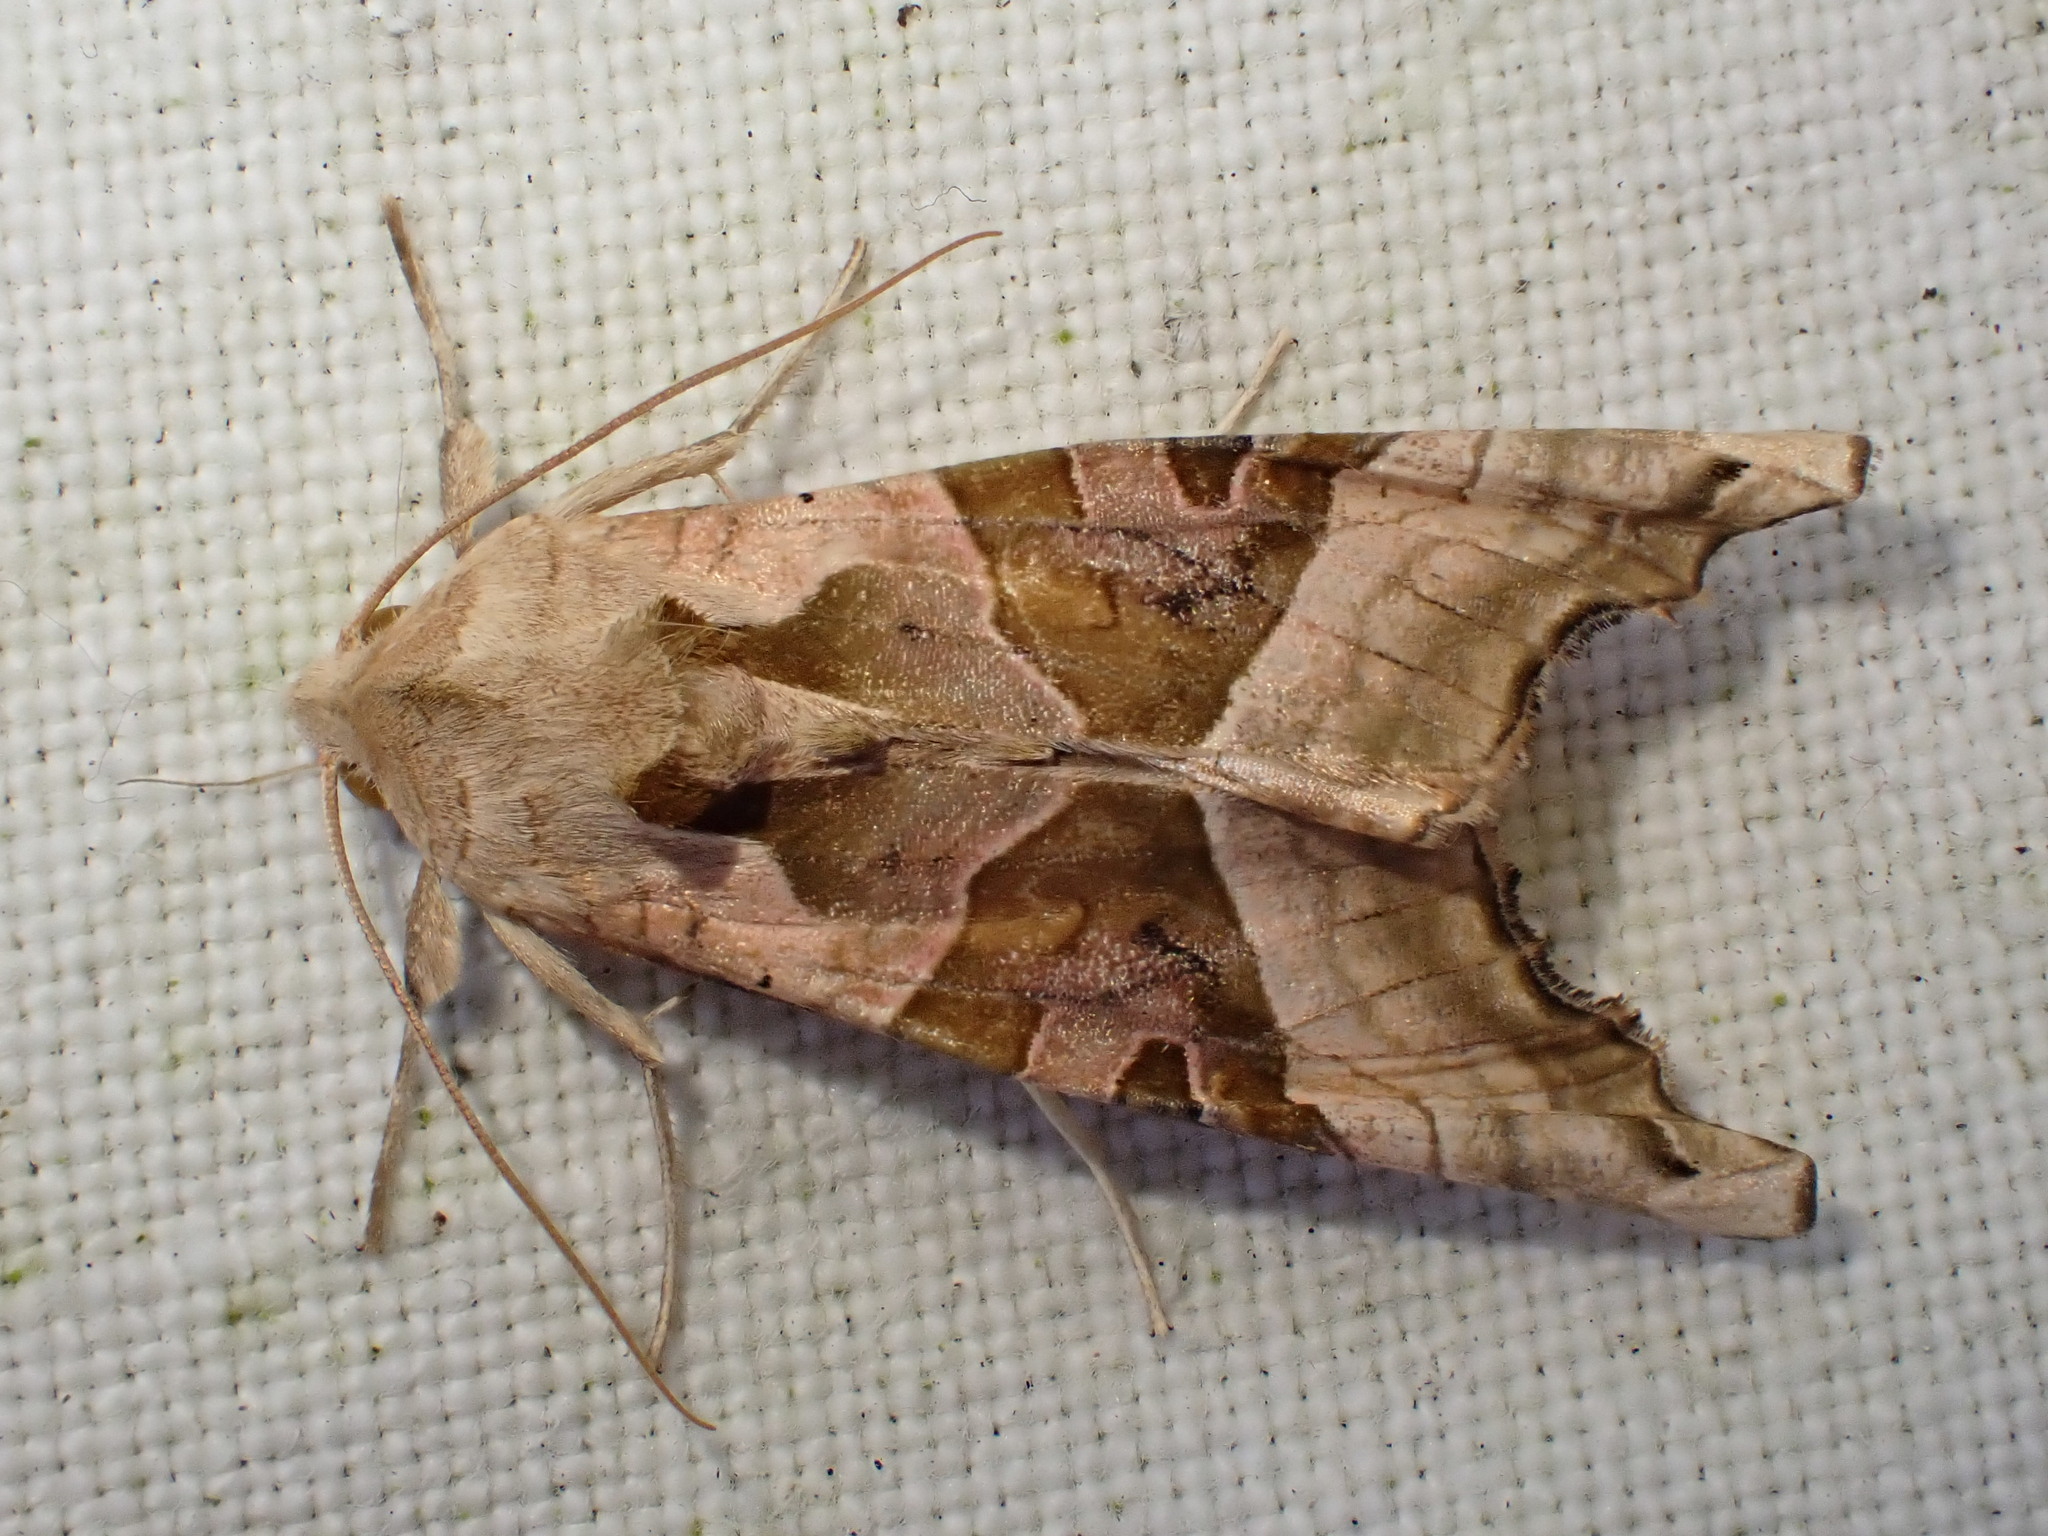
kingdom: Animalia
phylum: Arthropoda
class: Insecta
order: Lepidoptera
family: Noctuidae
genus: Phlogophora
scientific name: Phlogophora meticulosa
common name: Angle shades
